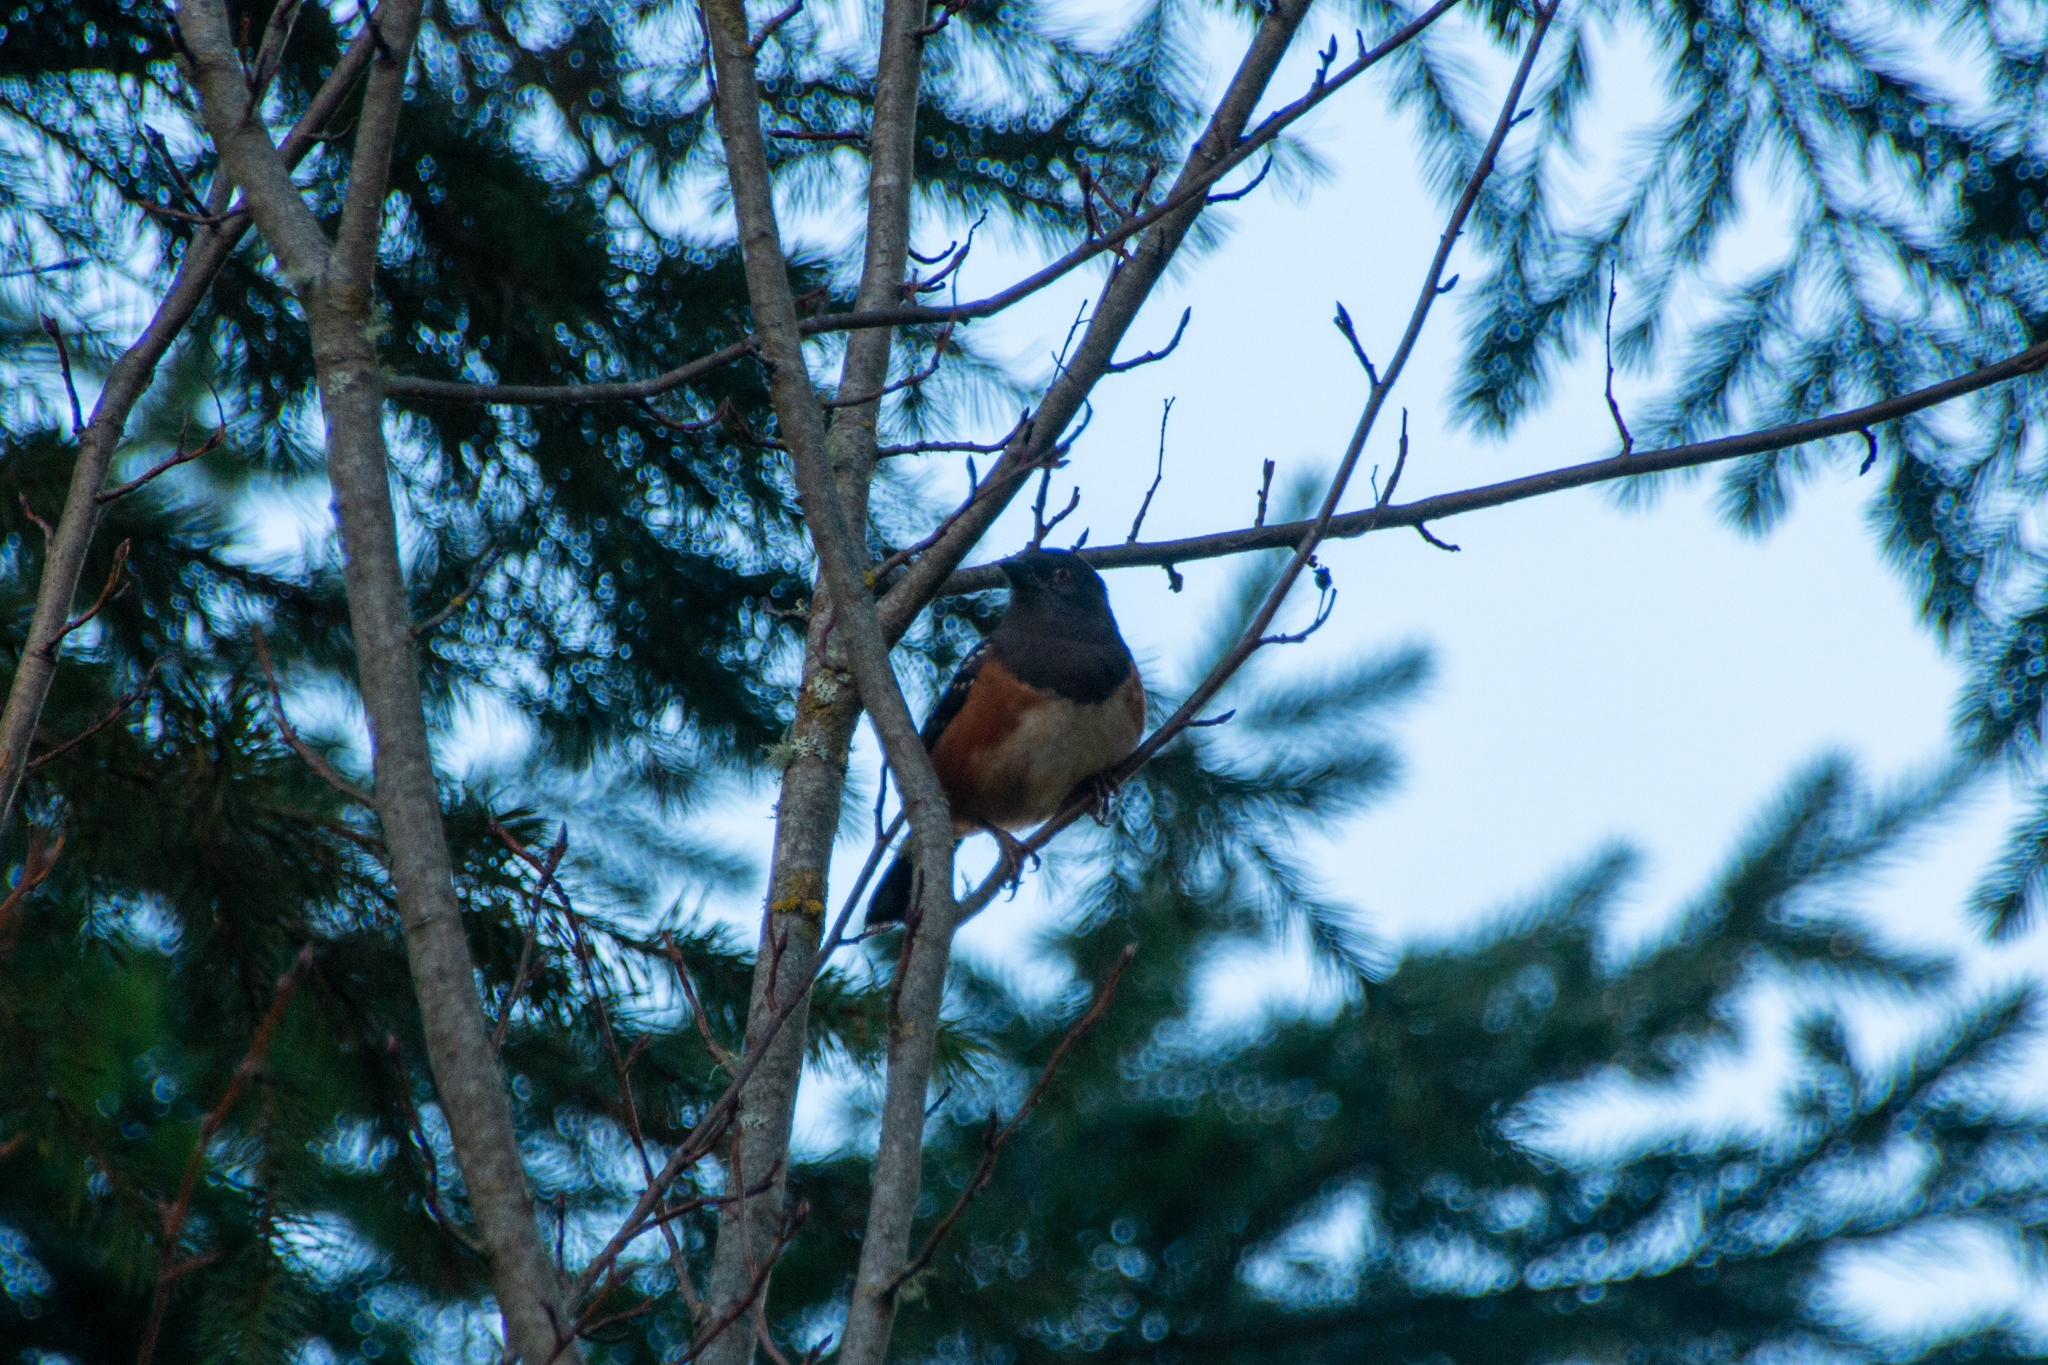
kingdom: Animalia
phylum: Chordata
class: Aves
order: Passeriformes
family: Passerellidae
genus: Pipilo
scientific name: Pipilo maculatus
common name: Spotted towhee
